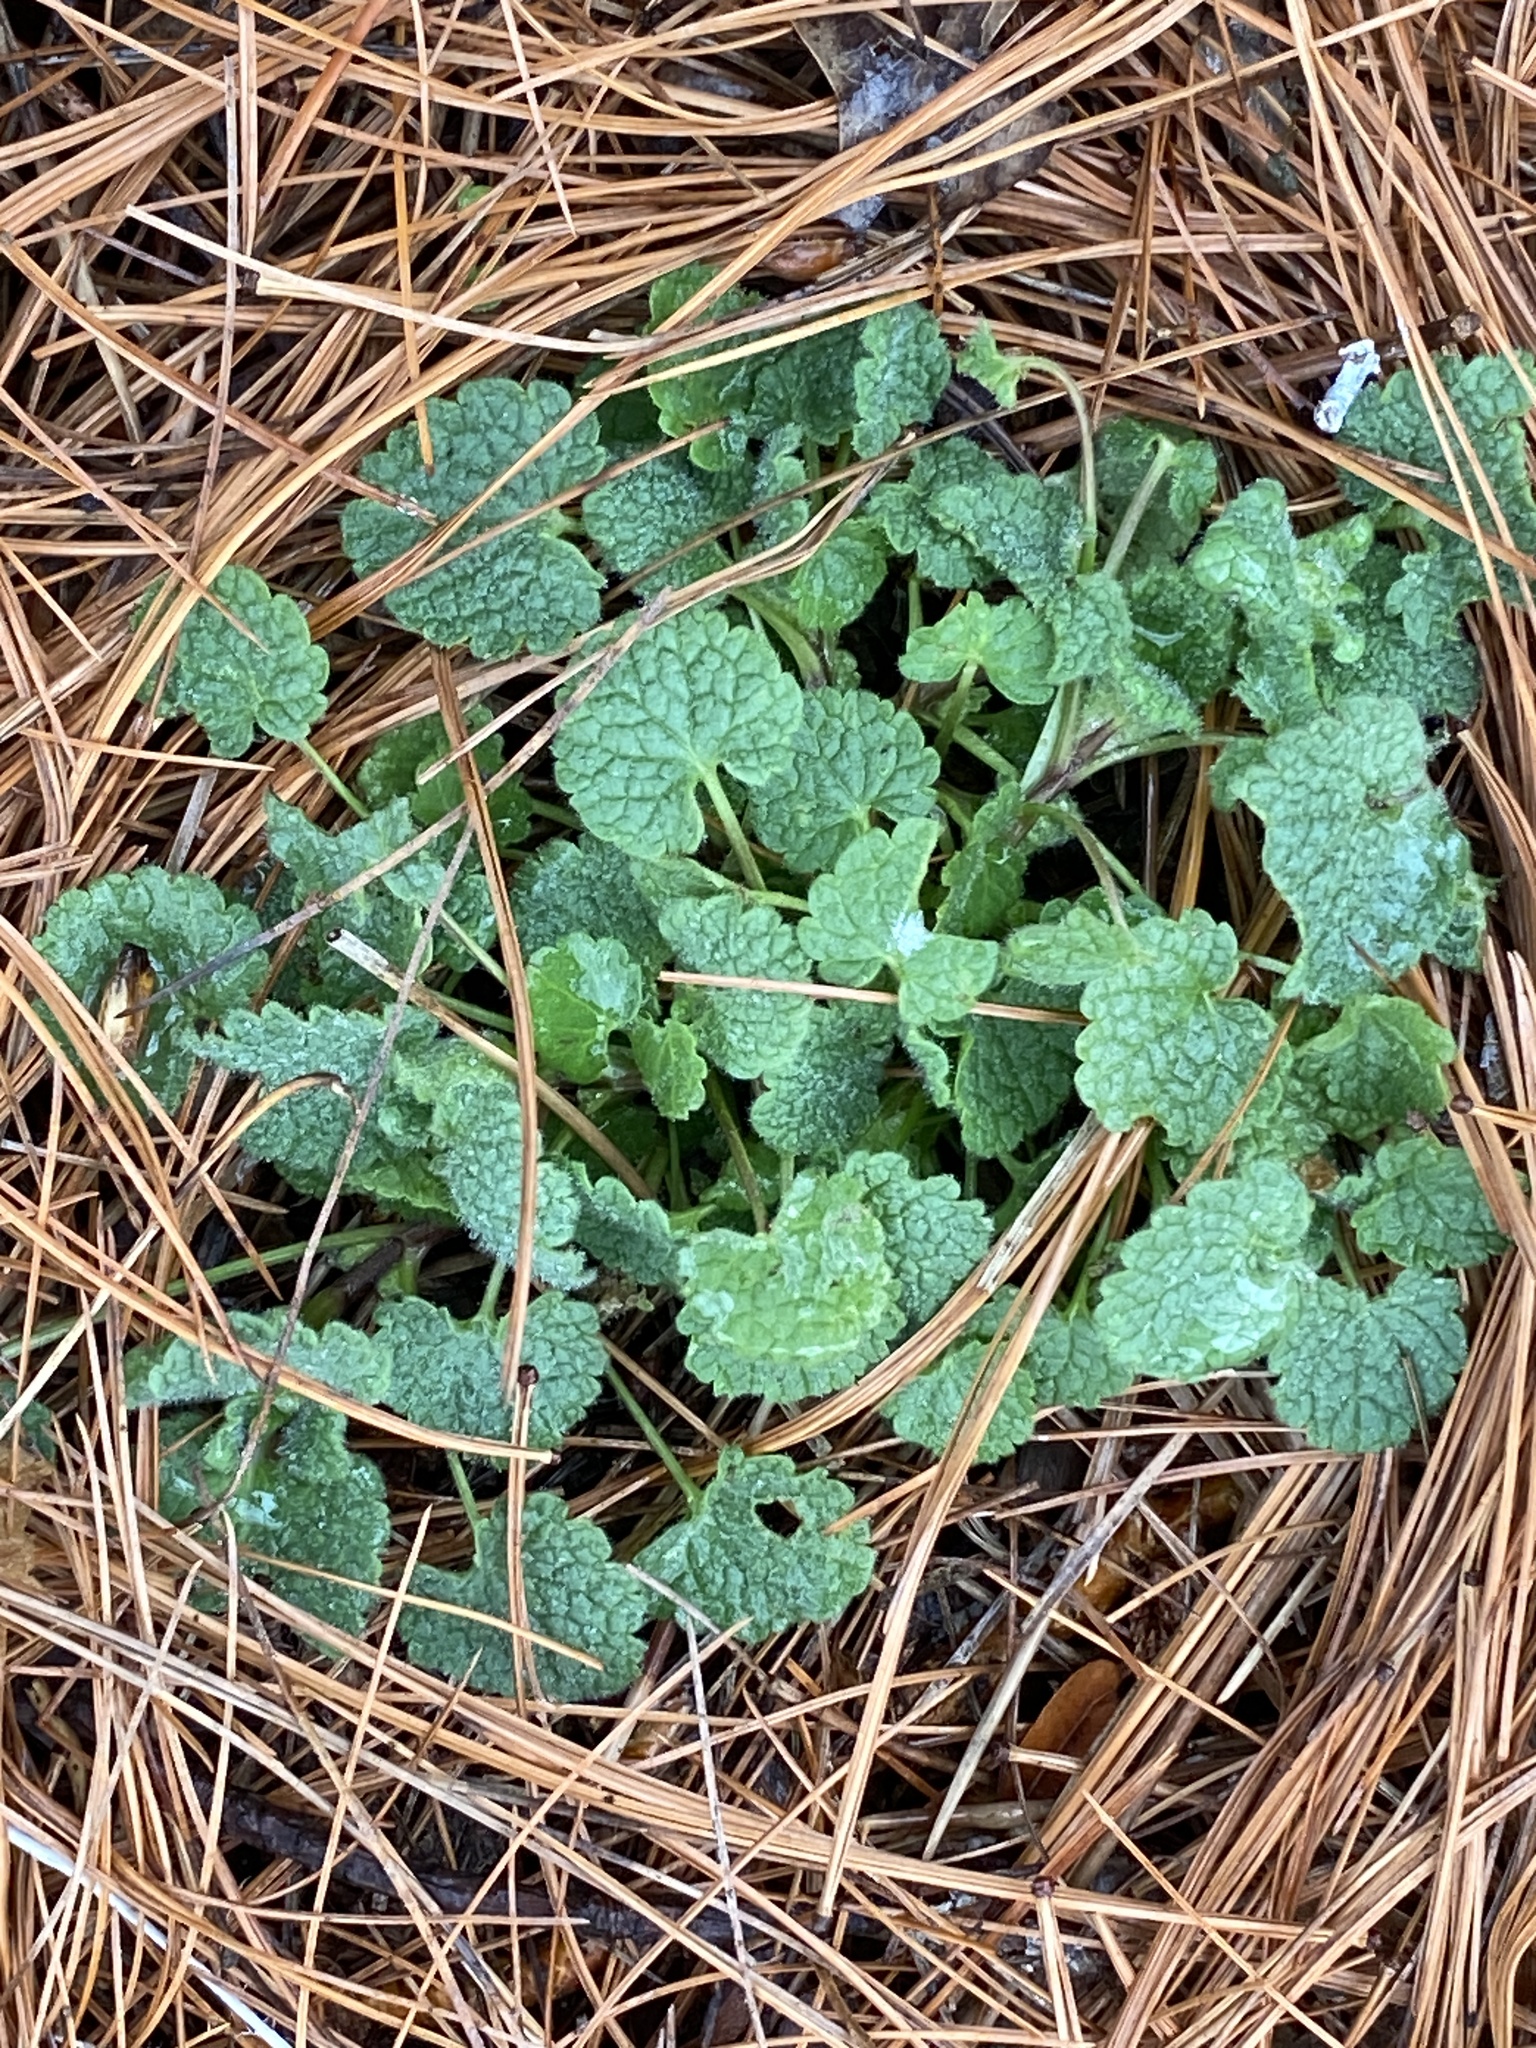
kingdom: Plantae
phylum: Tracheophyta
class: Magnoliopsida
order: Lamiales
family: Lamiaceae
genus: Lamium
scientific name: Lamium purpureum
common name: Red dead-nettle
